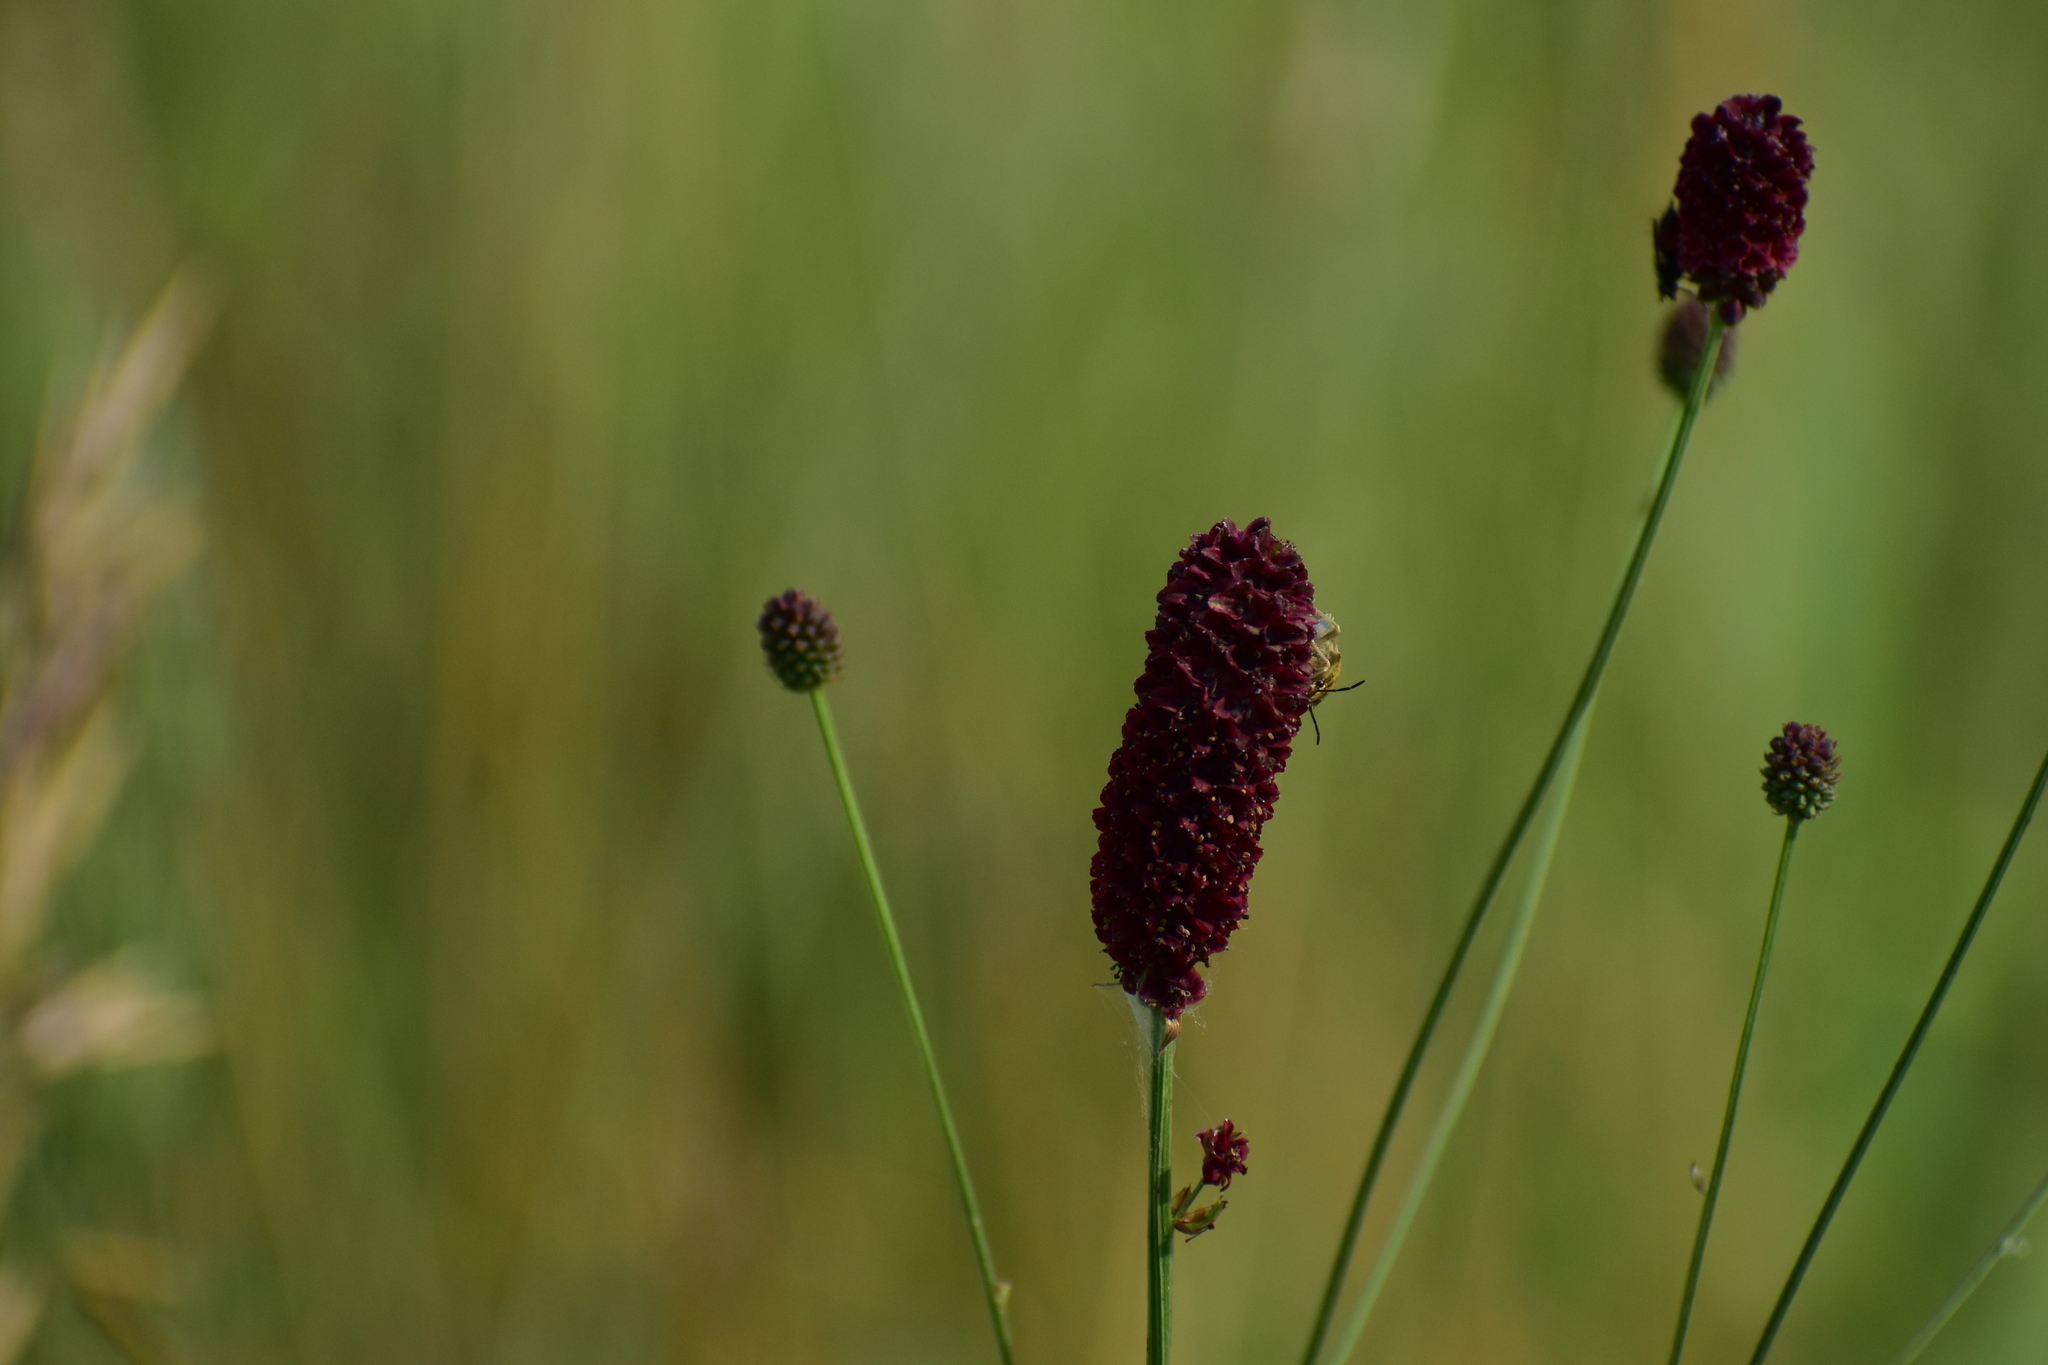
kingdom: Plantae
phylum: Tracheophyta
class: Magnoliopsida
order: Rosales
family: Rosaceae
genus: Sanguisorba
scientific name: Sanguisorba officinalis
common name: Great burnet
